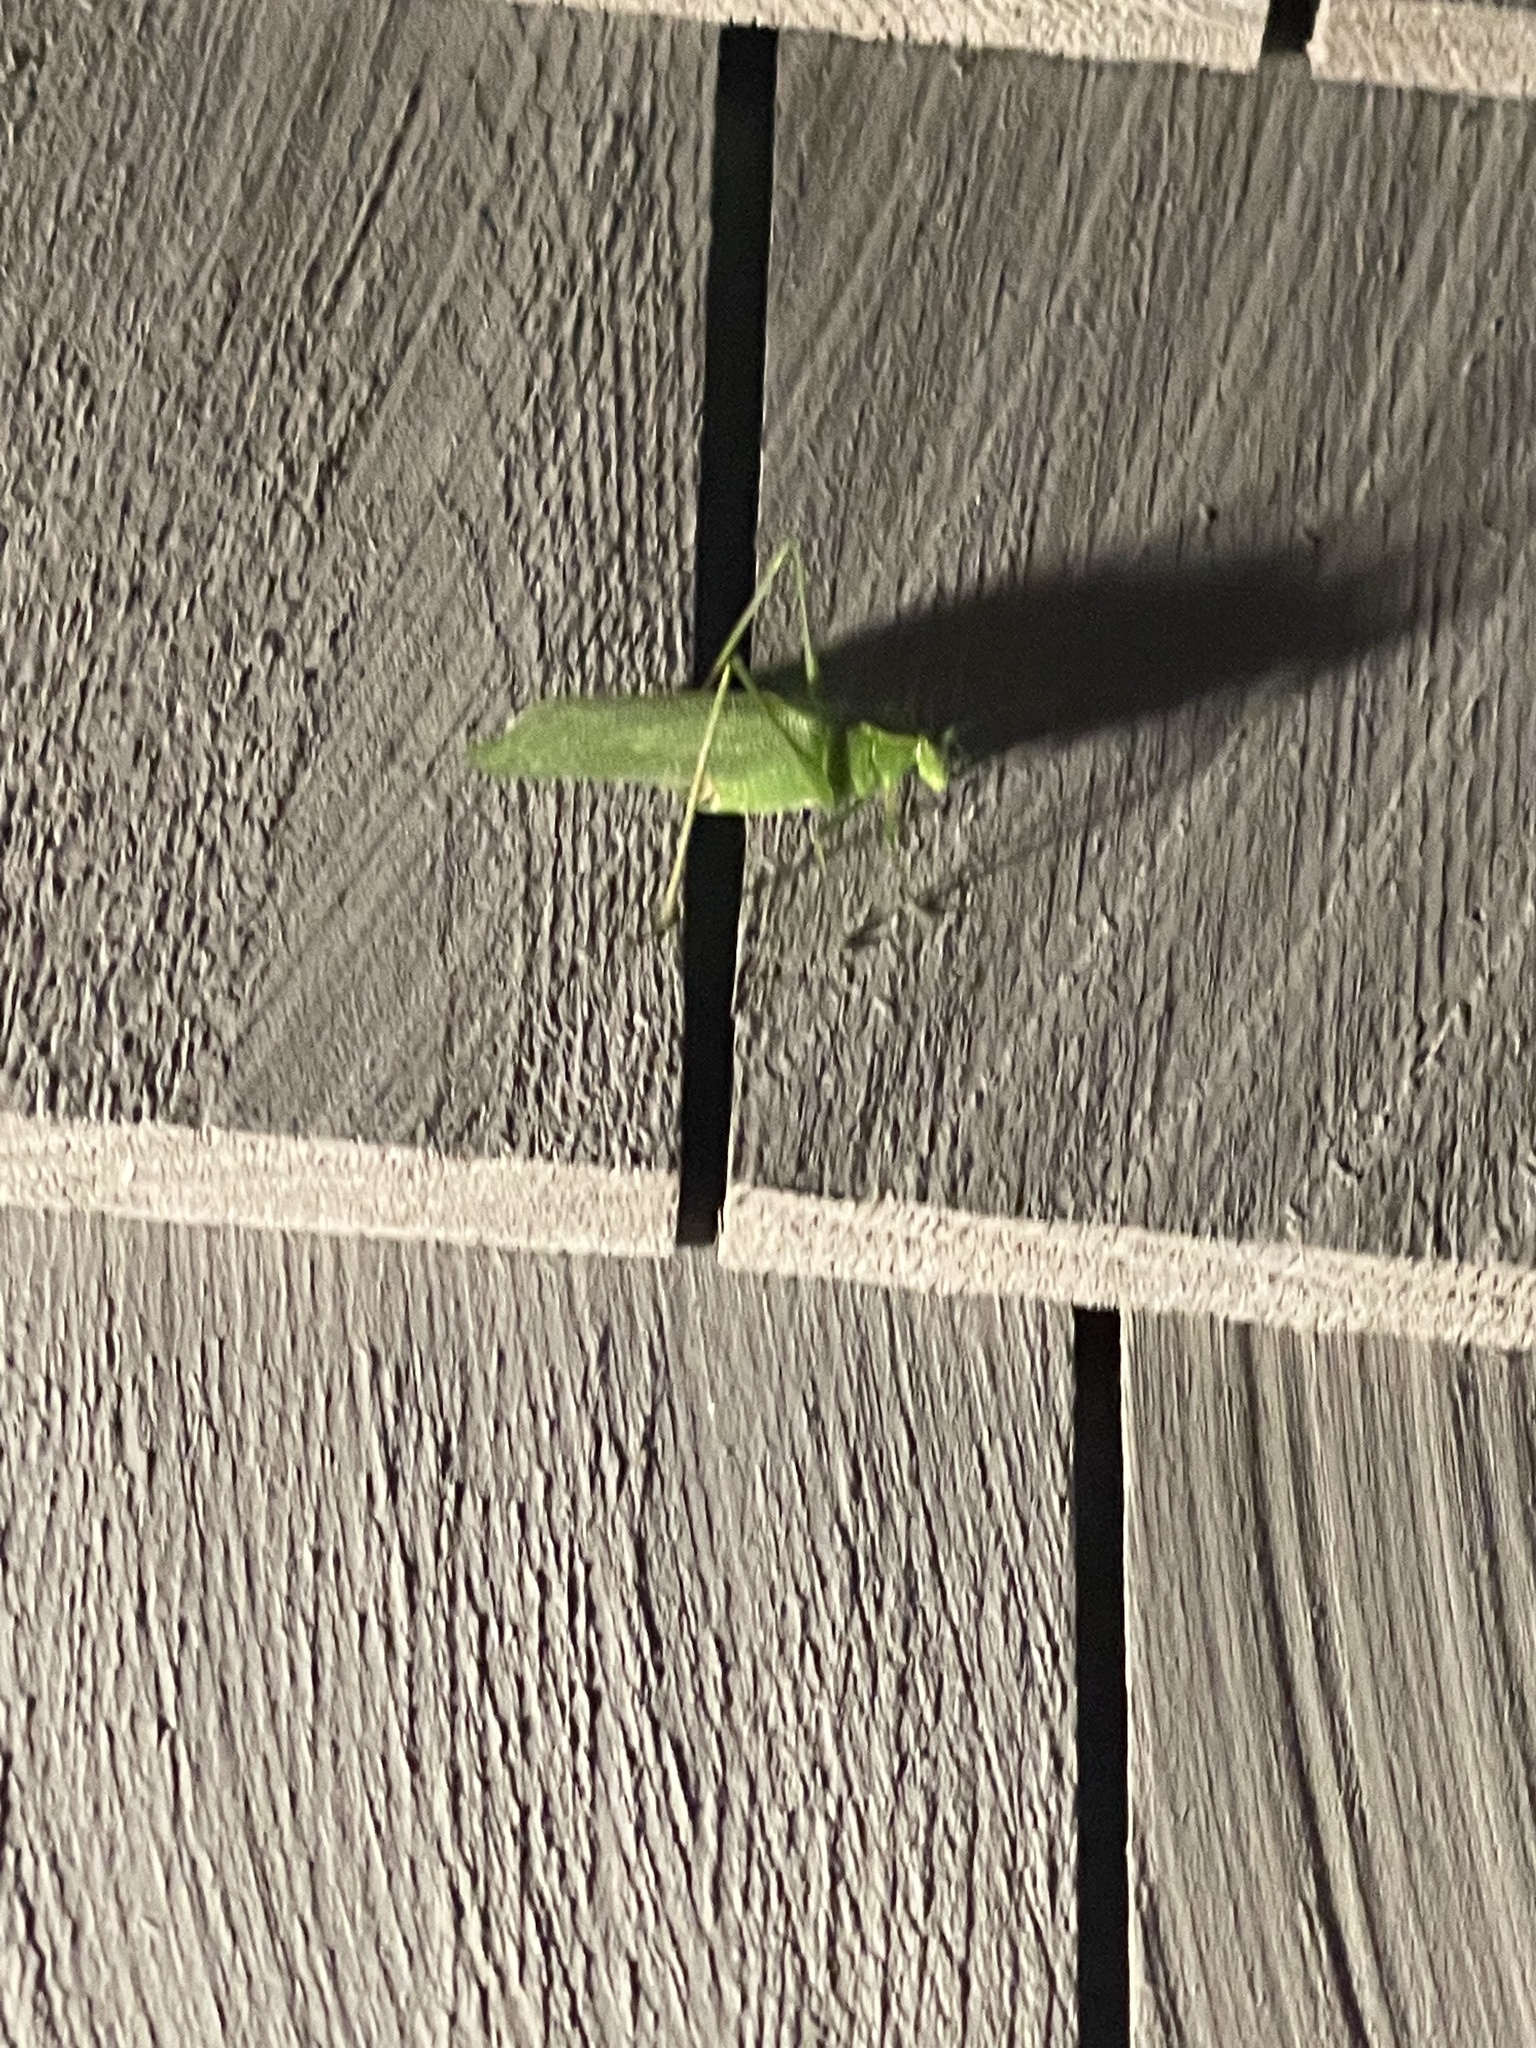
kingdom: Animalia
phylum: Arthropoda
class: Insecta
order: Orthoptera
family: Tettigoniidae
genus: Scudderia
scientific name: Scudderia septentrionalis
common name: Northern bush-katydid
